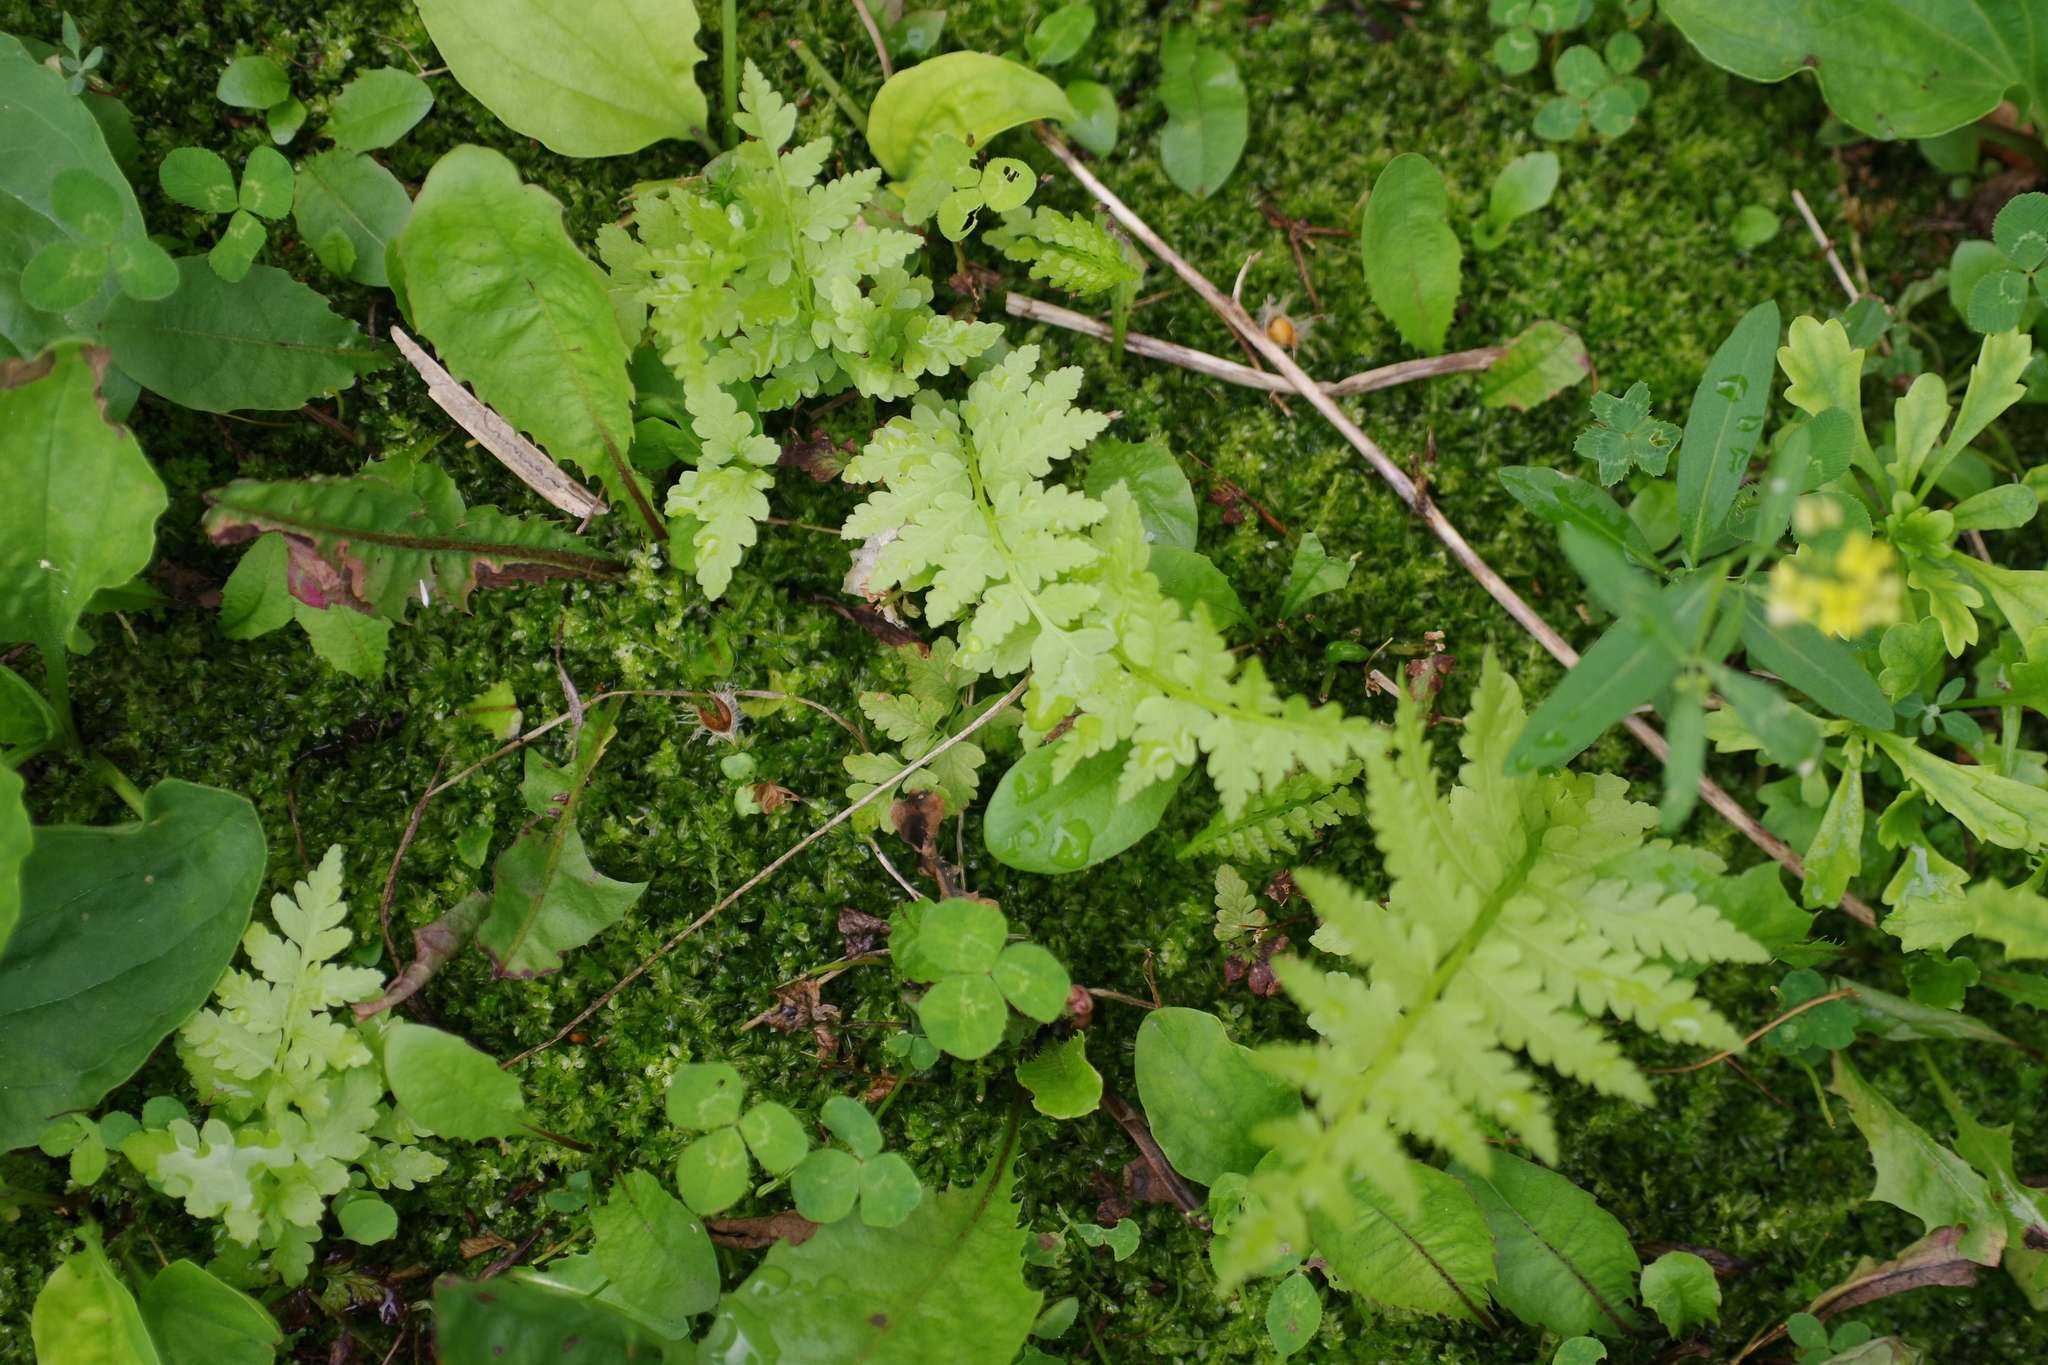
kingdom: Plantae
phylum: Tracheophyta
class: Polypodiopsida
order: Polypodiales
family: Onocleaceae
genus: Matteuccia
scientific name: Matteuccia struthiopteris
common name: Ostrich fern
